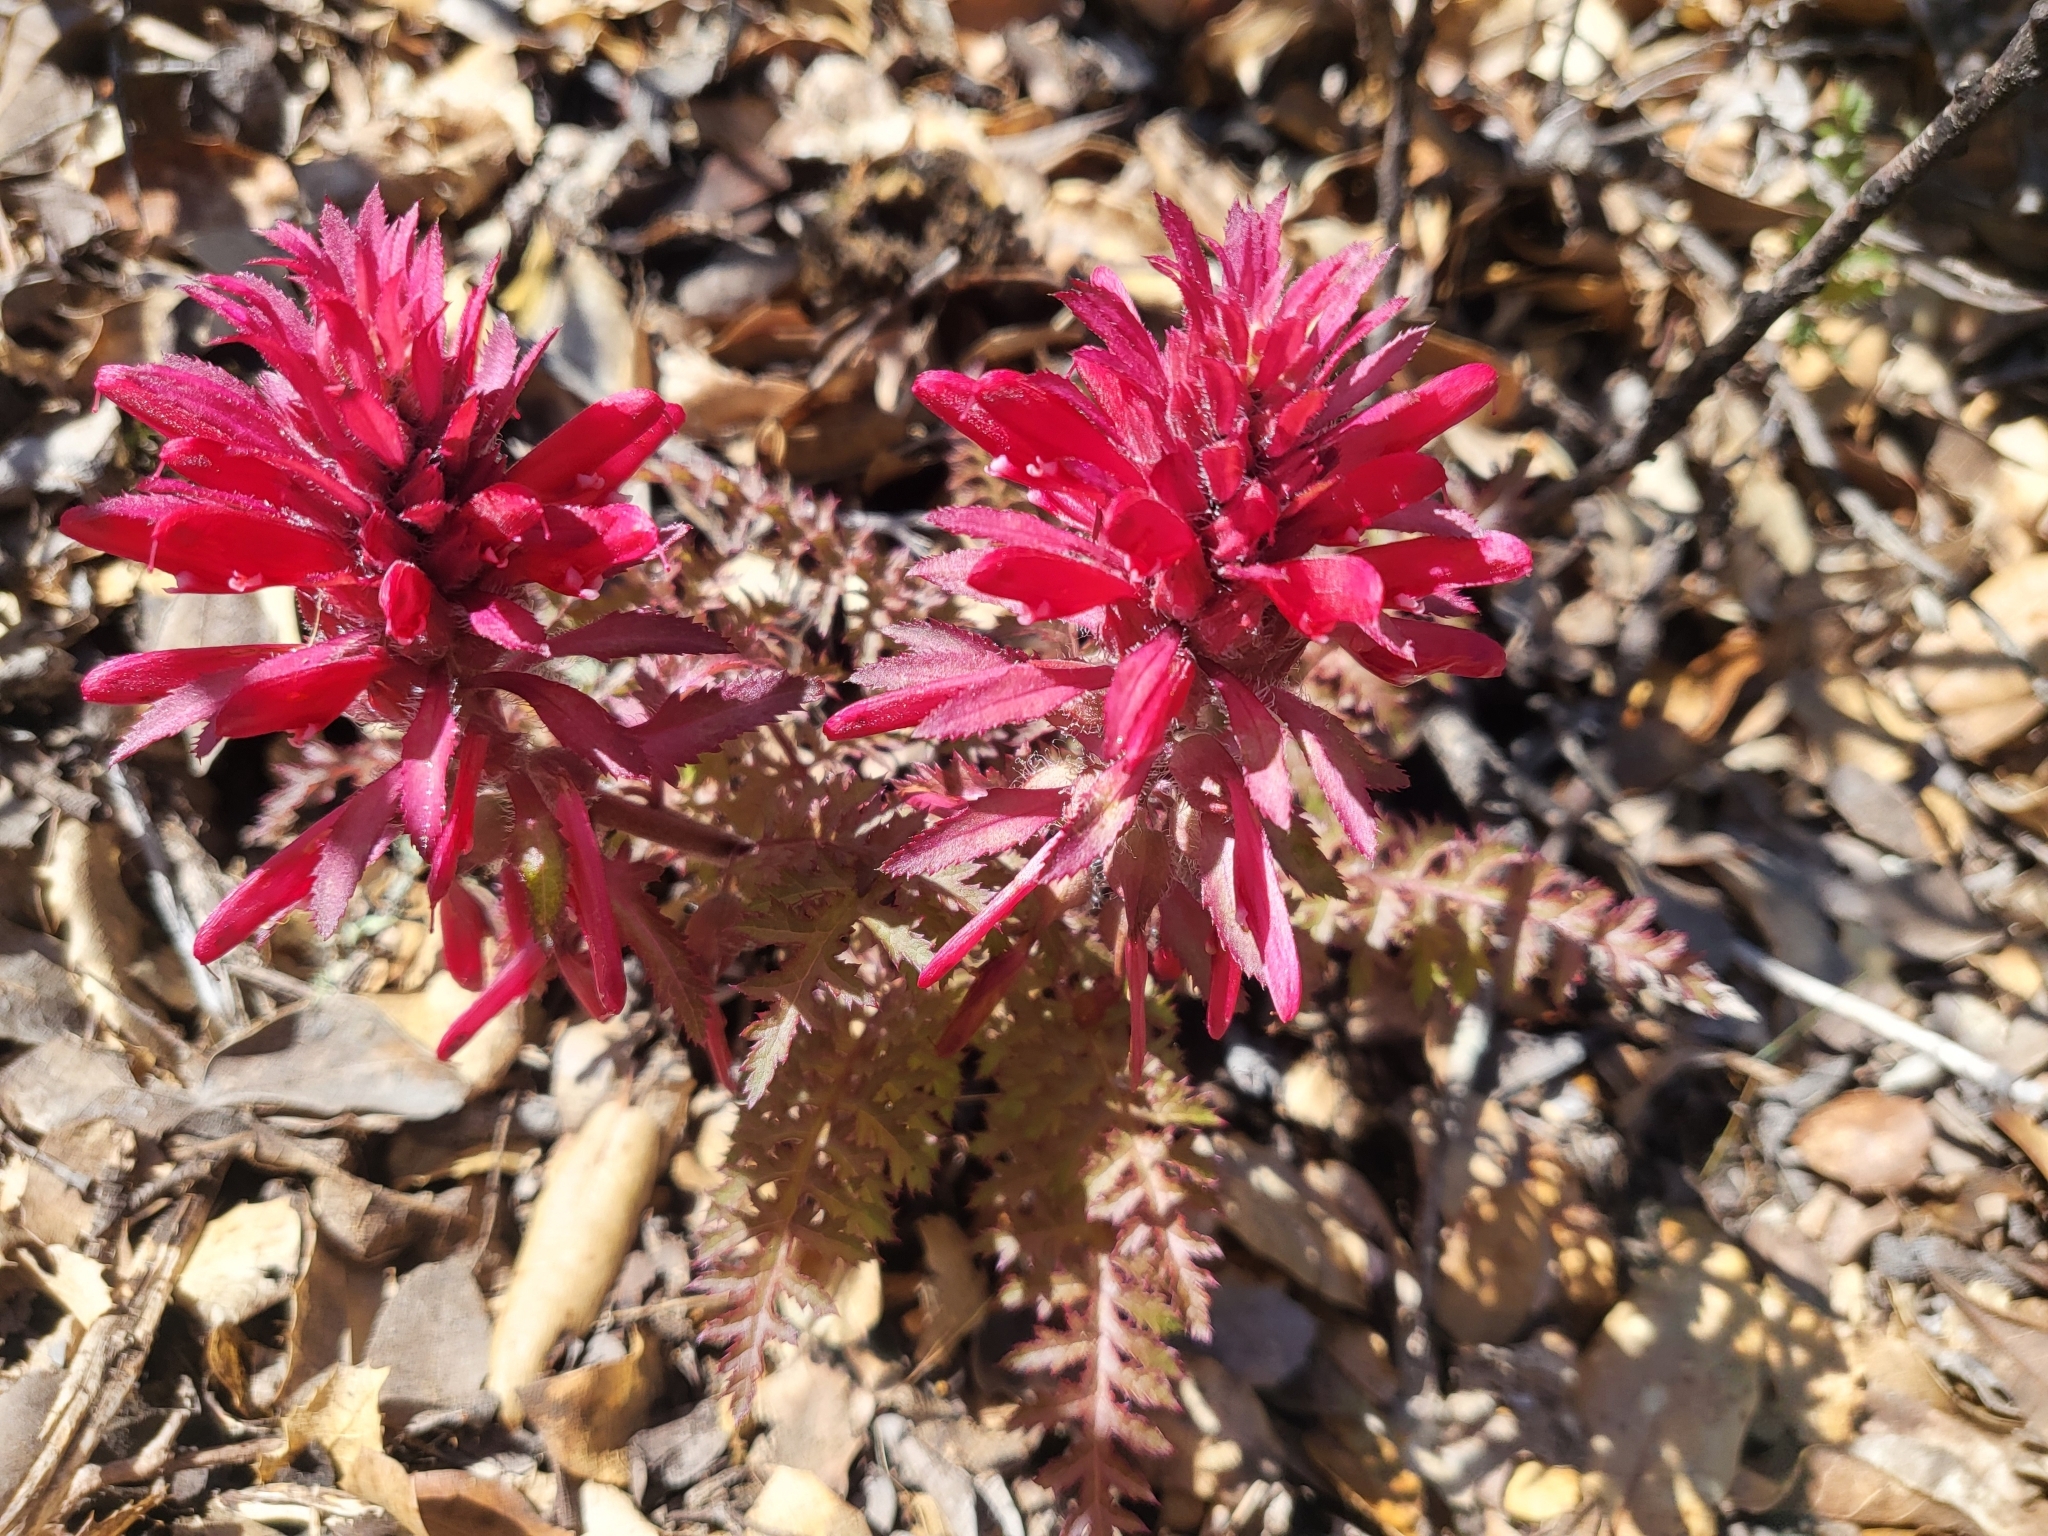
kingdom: Plantae
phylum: Tracheophyta
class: Magnoliopsida
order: Lamiales
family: Orobanchaceae
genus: Pedicularis
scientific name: Pedicularis densiflora
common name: Indian warrior
